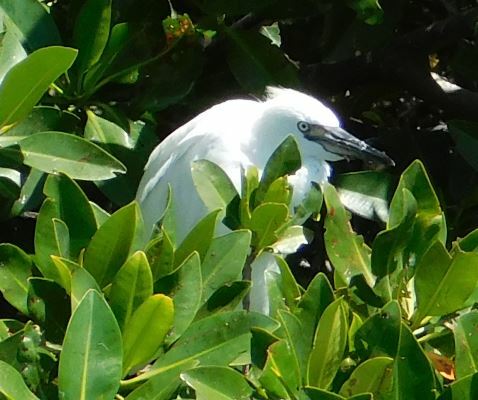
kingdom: Animalia
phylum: Chordata
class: Aves
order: Pelecaniformes
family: Ardeidae
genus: Egretta
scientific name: Egretta rufescens
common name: Reddish egret
